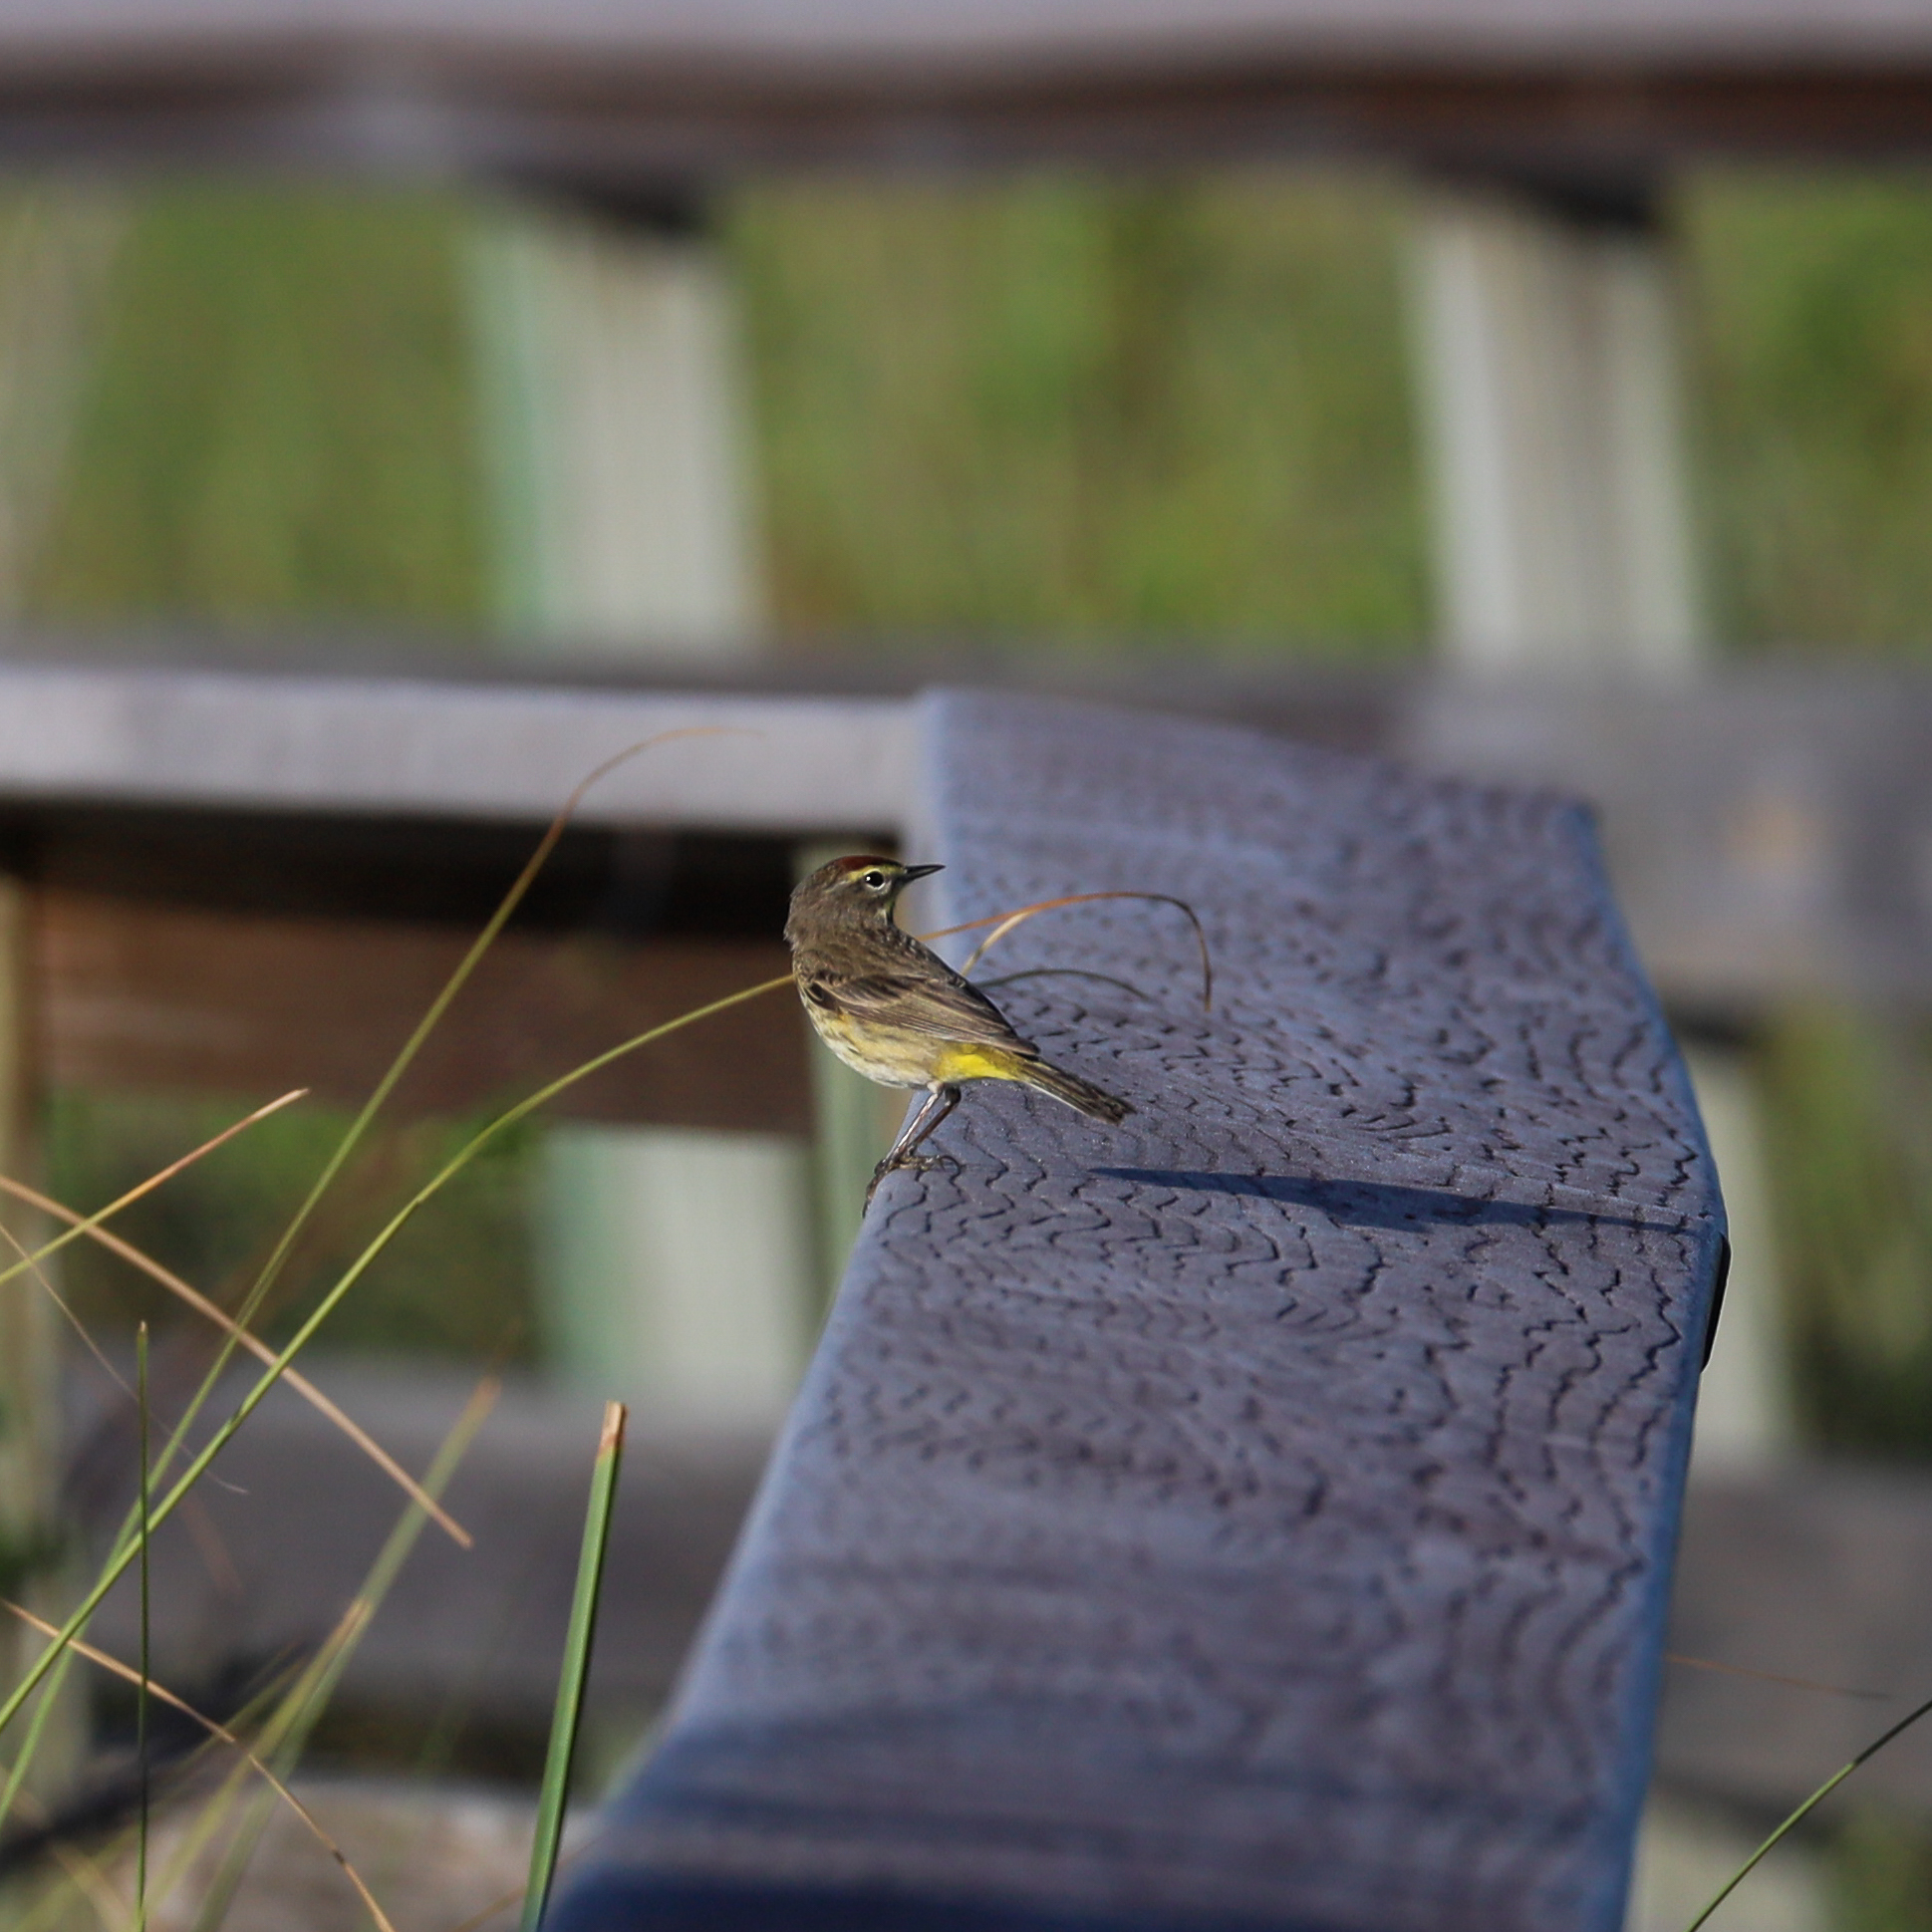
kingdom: Animalia
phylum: Chordata
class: Aves
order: Passeriformes
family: Parulidae
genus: Setophaga
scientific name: Setophaga palmarum
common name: Palm warbler
